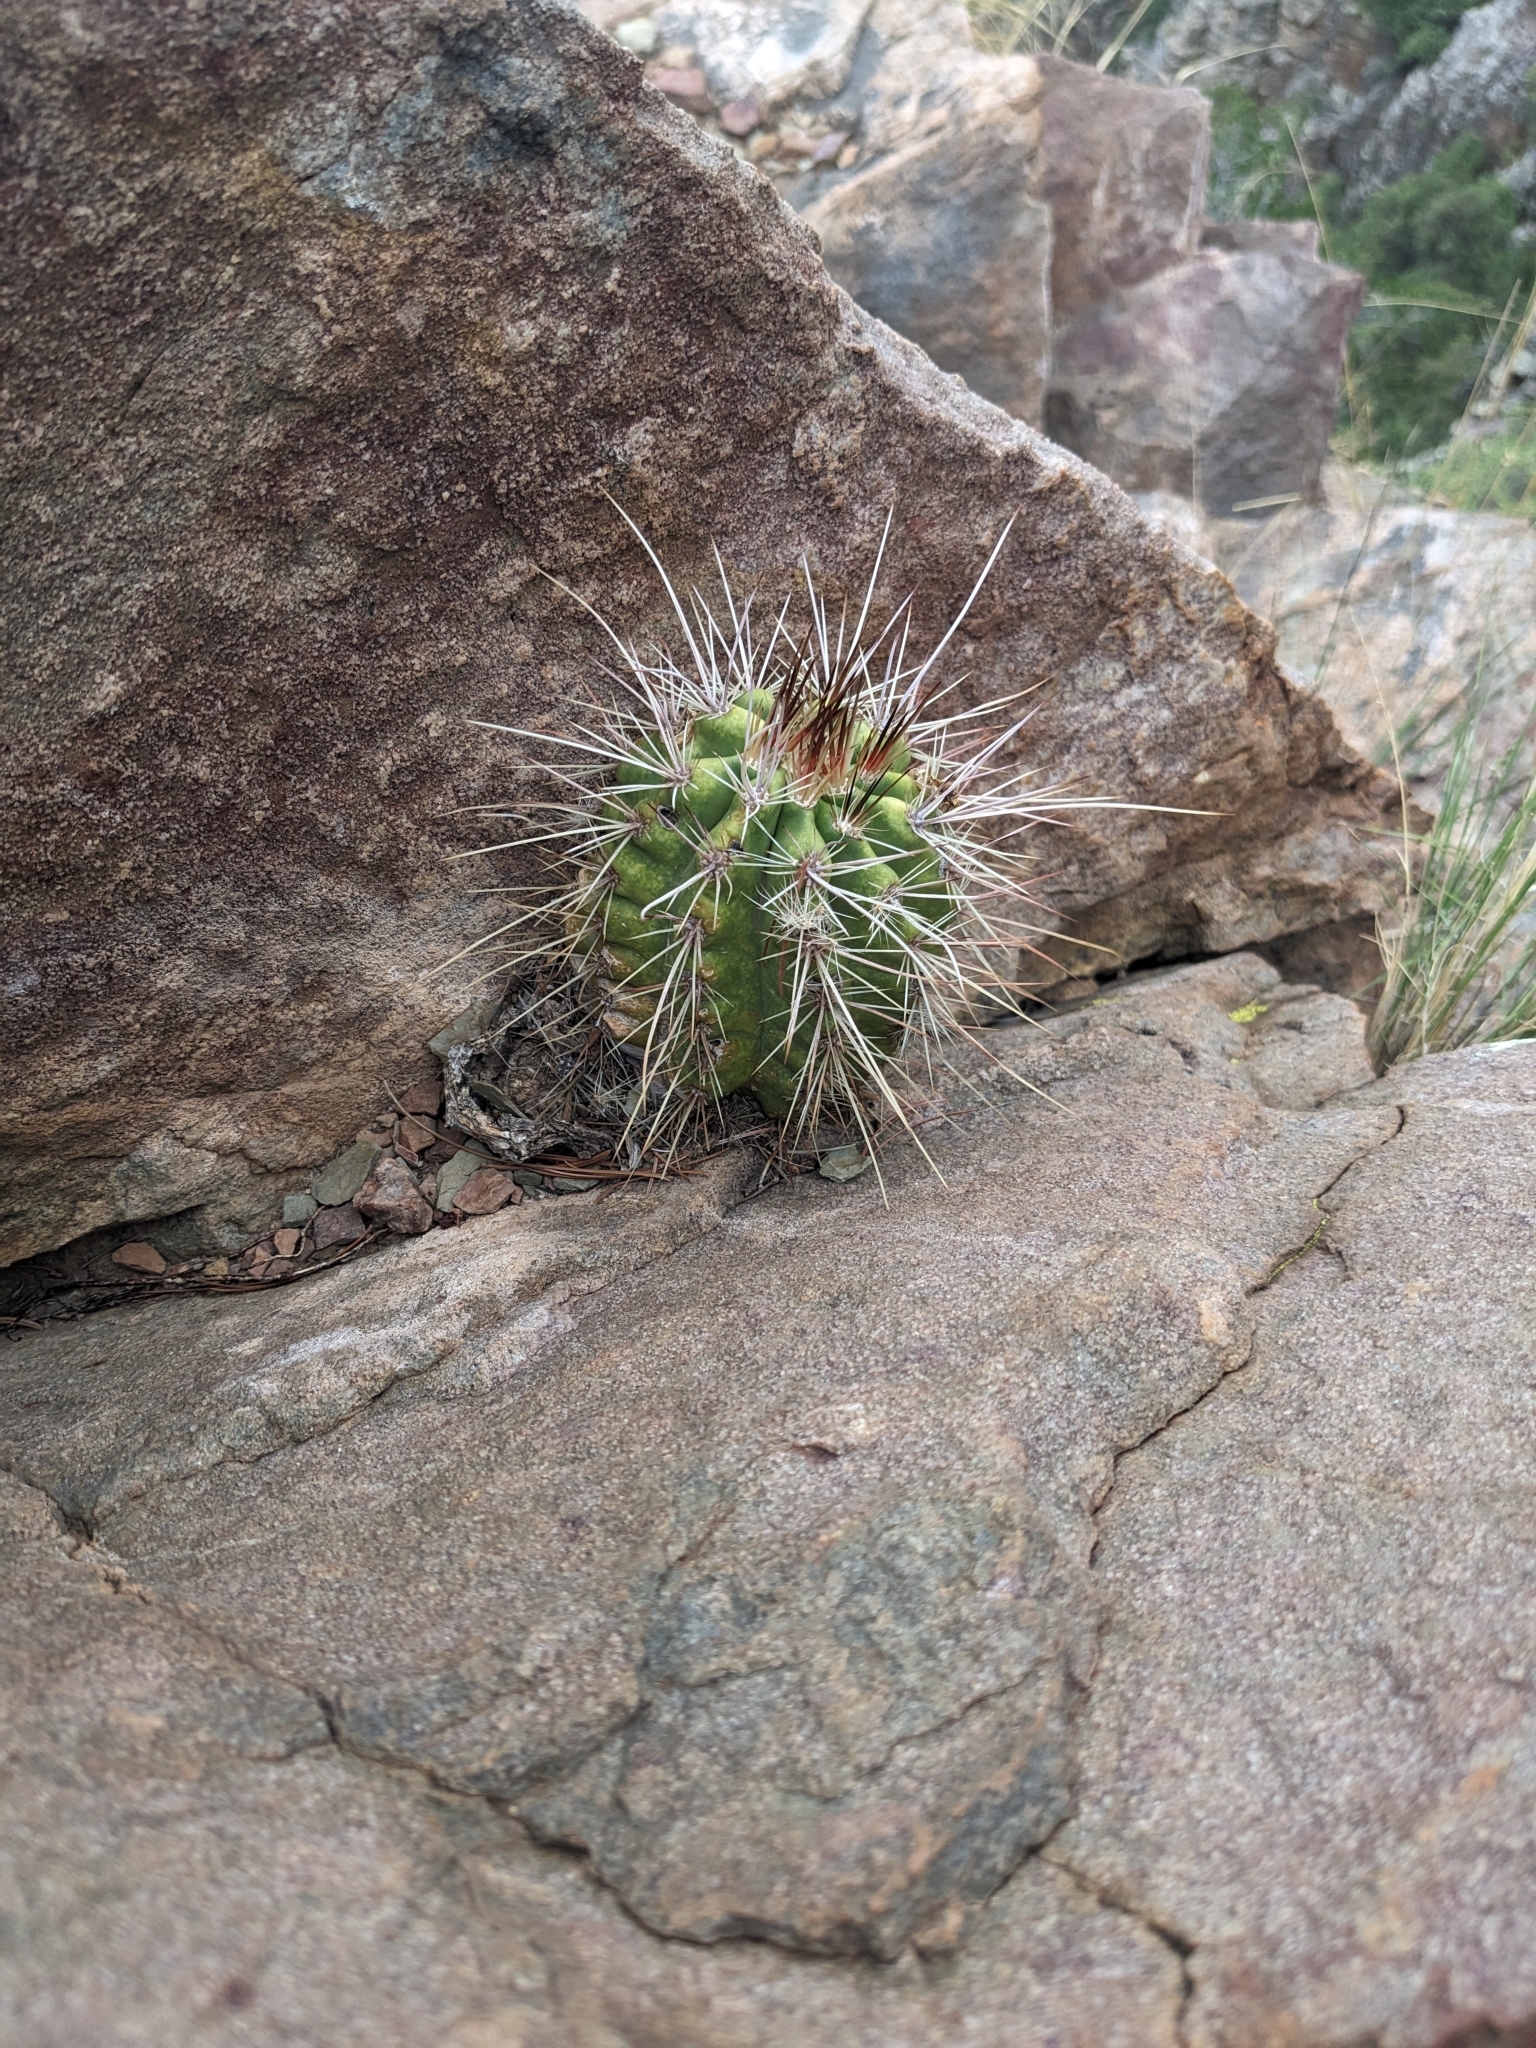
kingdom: Plantae
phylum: Tracheophyta
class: Magnoliopsida
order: Caryophyllales
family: Cactaceae
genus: Echinocereus
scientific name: Echinocereus coccineus
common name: Scarlet hedgehog cactus
